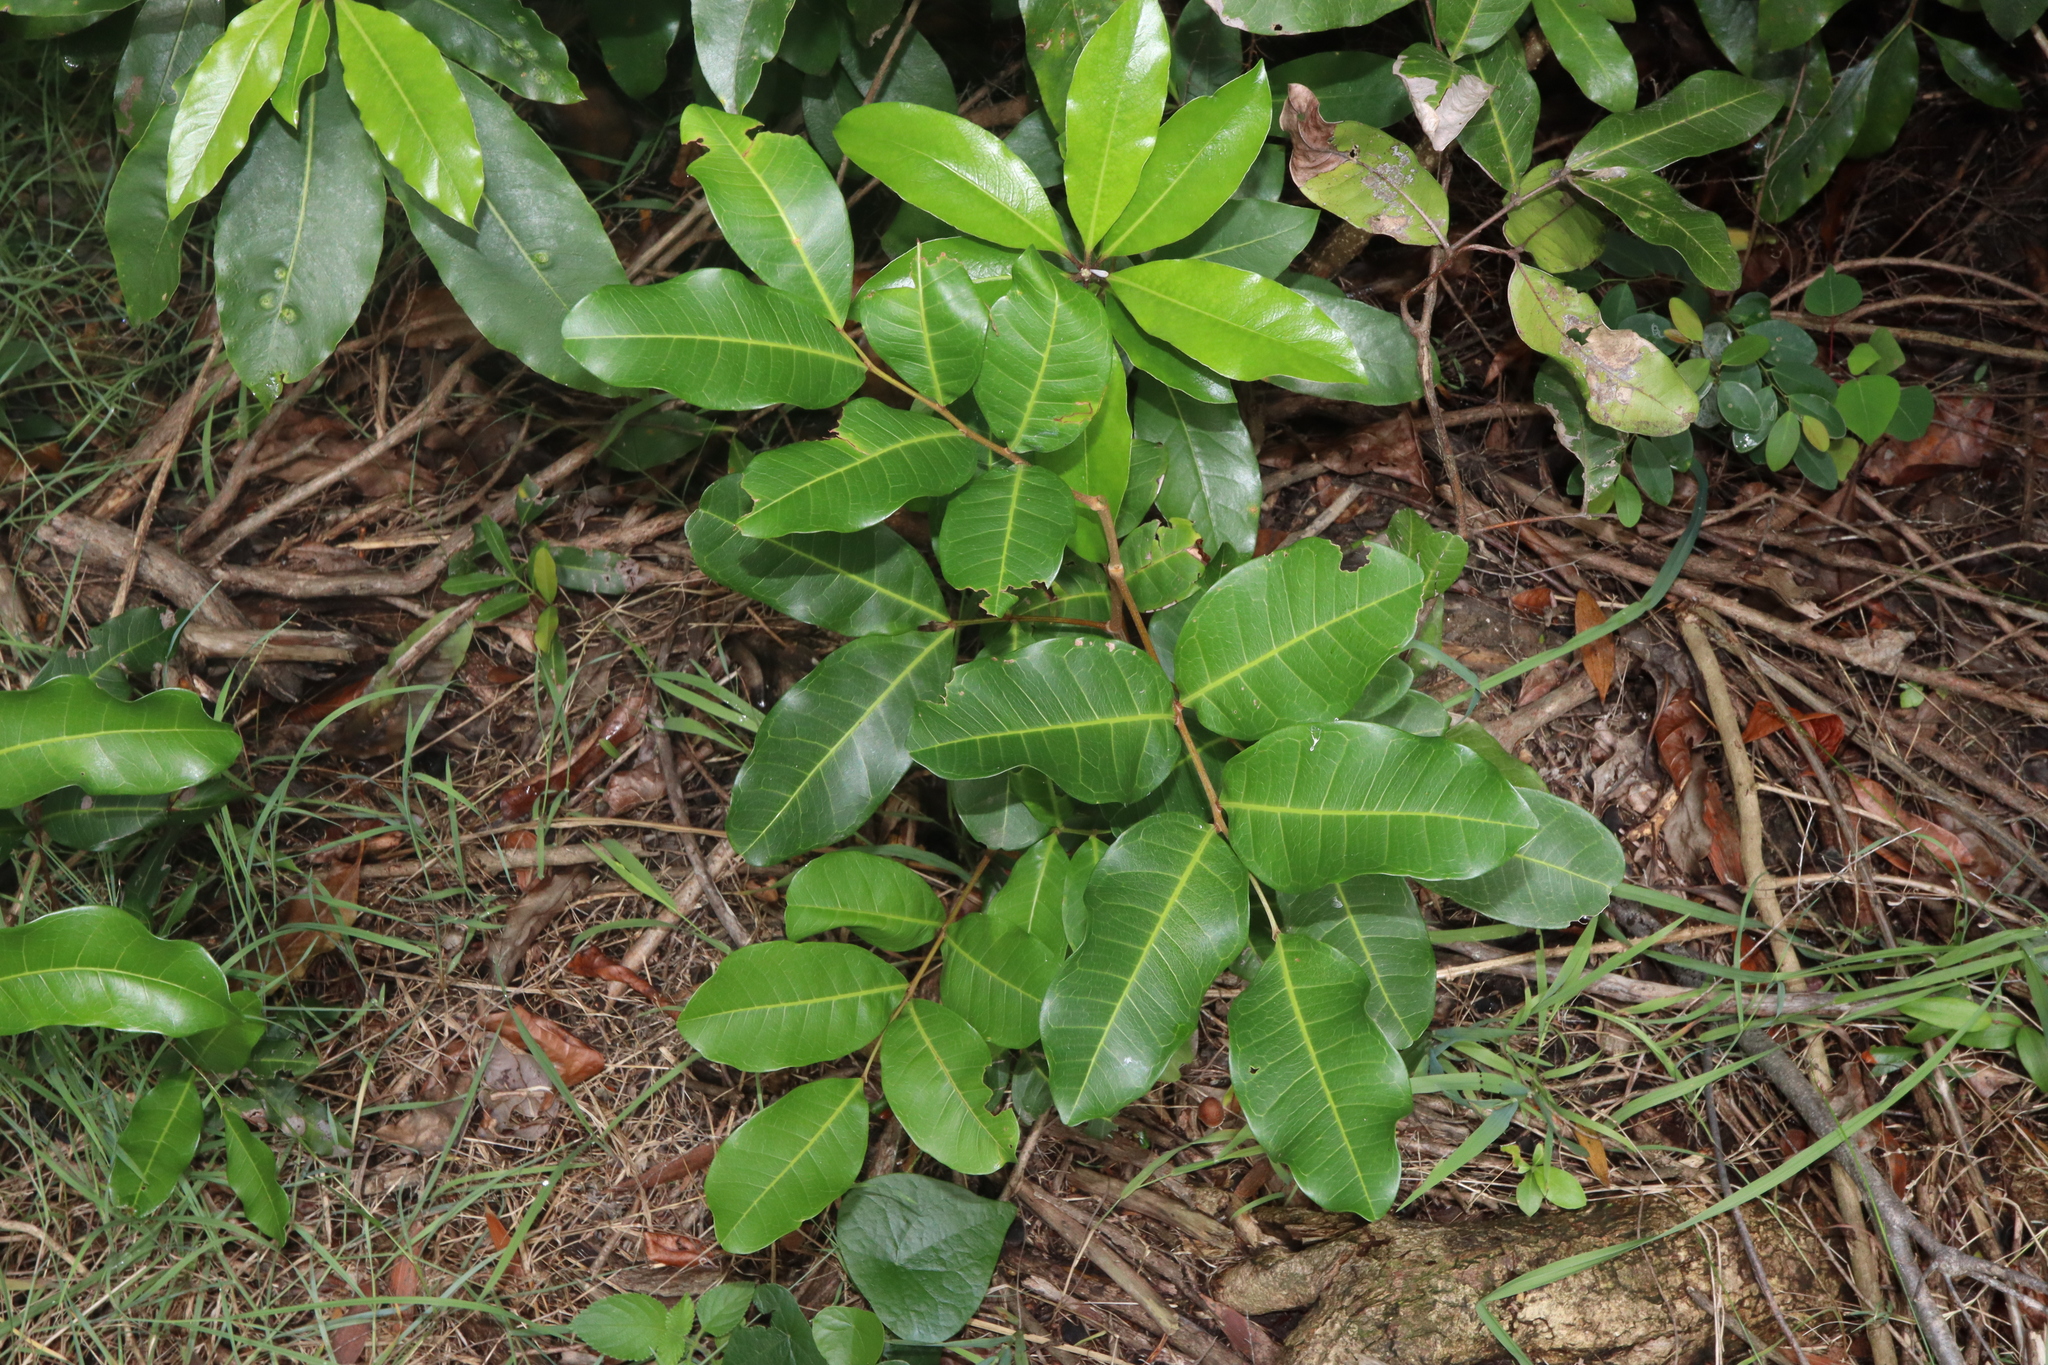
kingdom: Plantae
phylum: Tracheophyta
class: Magnoliopsida
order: Sapindales
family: Sapindaceae
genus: Cupaniopsis
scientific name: Cupaniopsis anacardioides
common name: Carrotwood
